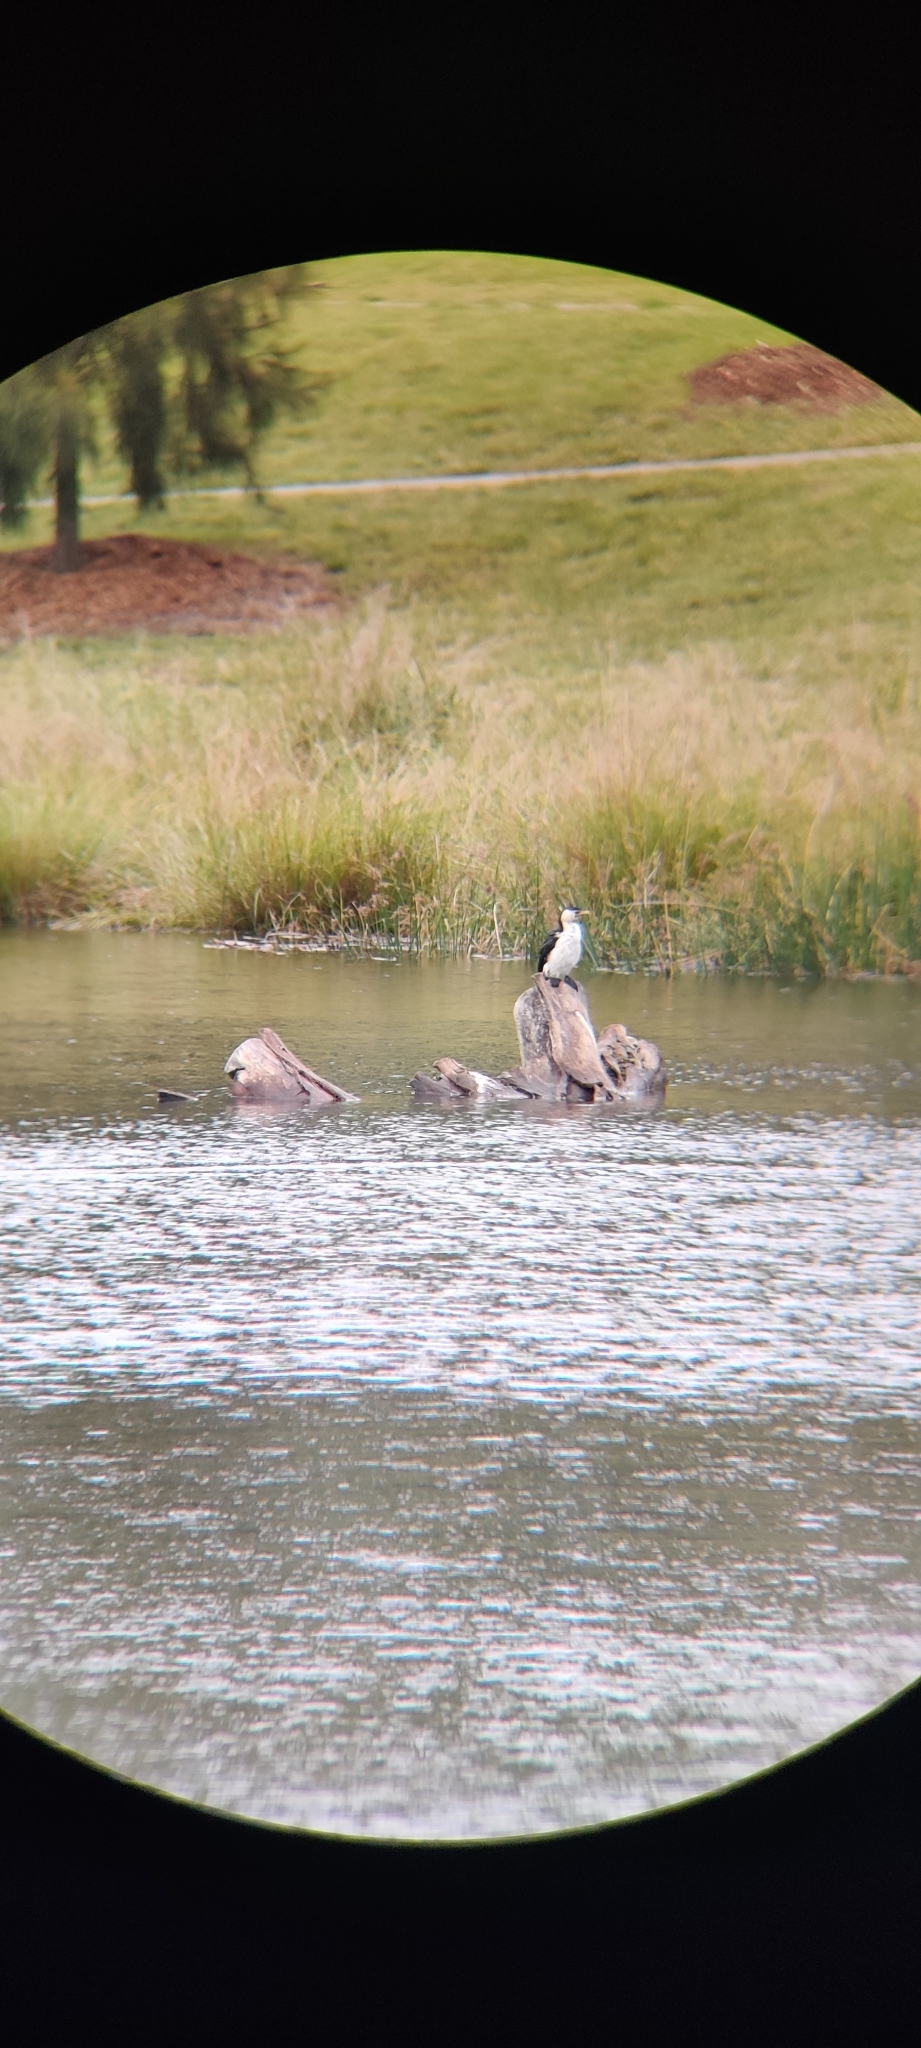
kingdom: Animalia
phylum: Chordata
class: Aves
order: Suliformes
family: Phalacrocoracidae
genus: Microcarbo
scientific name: Microcarbo melanoleucos
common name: Little pied cormorant
